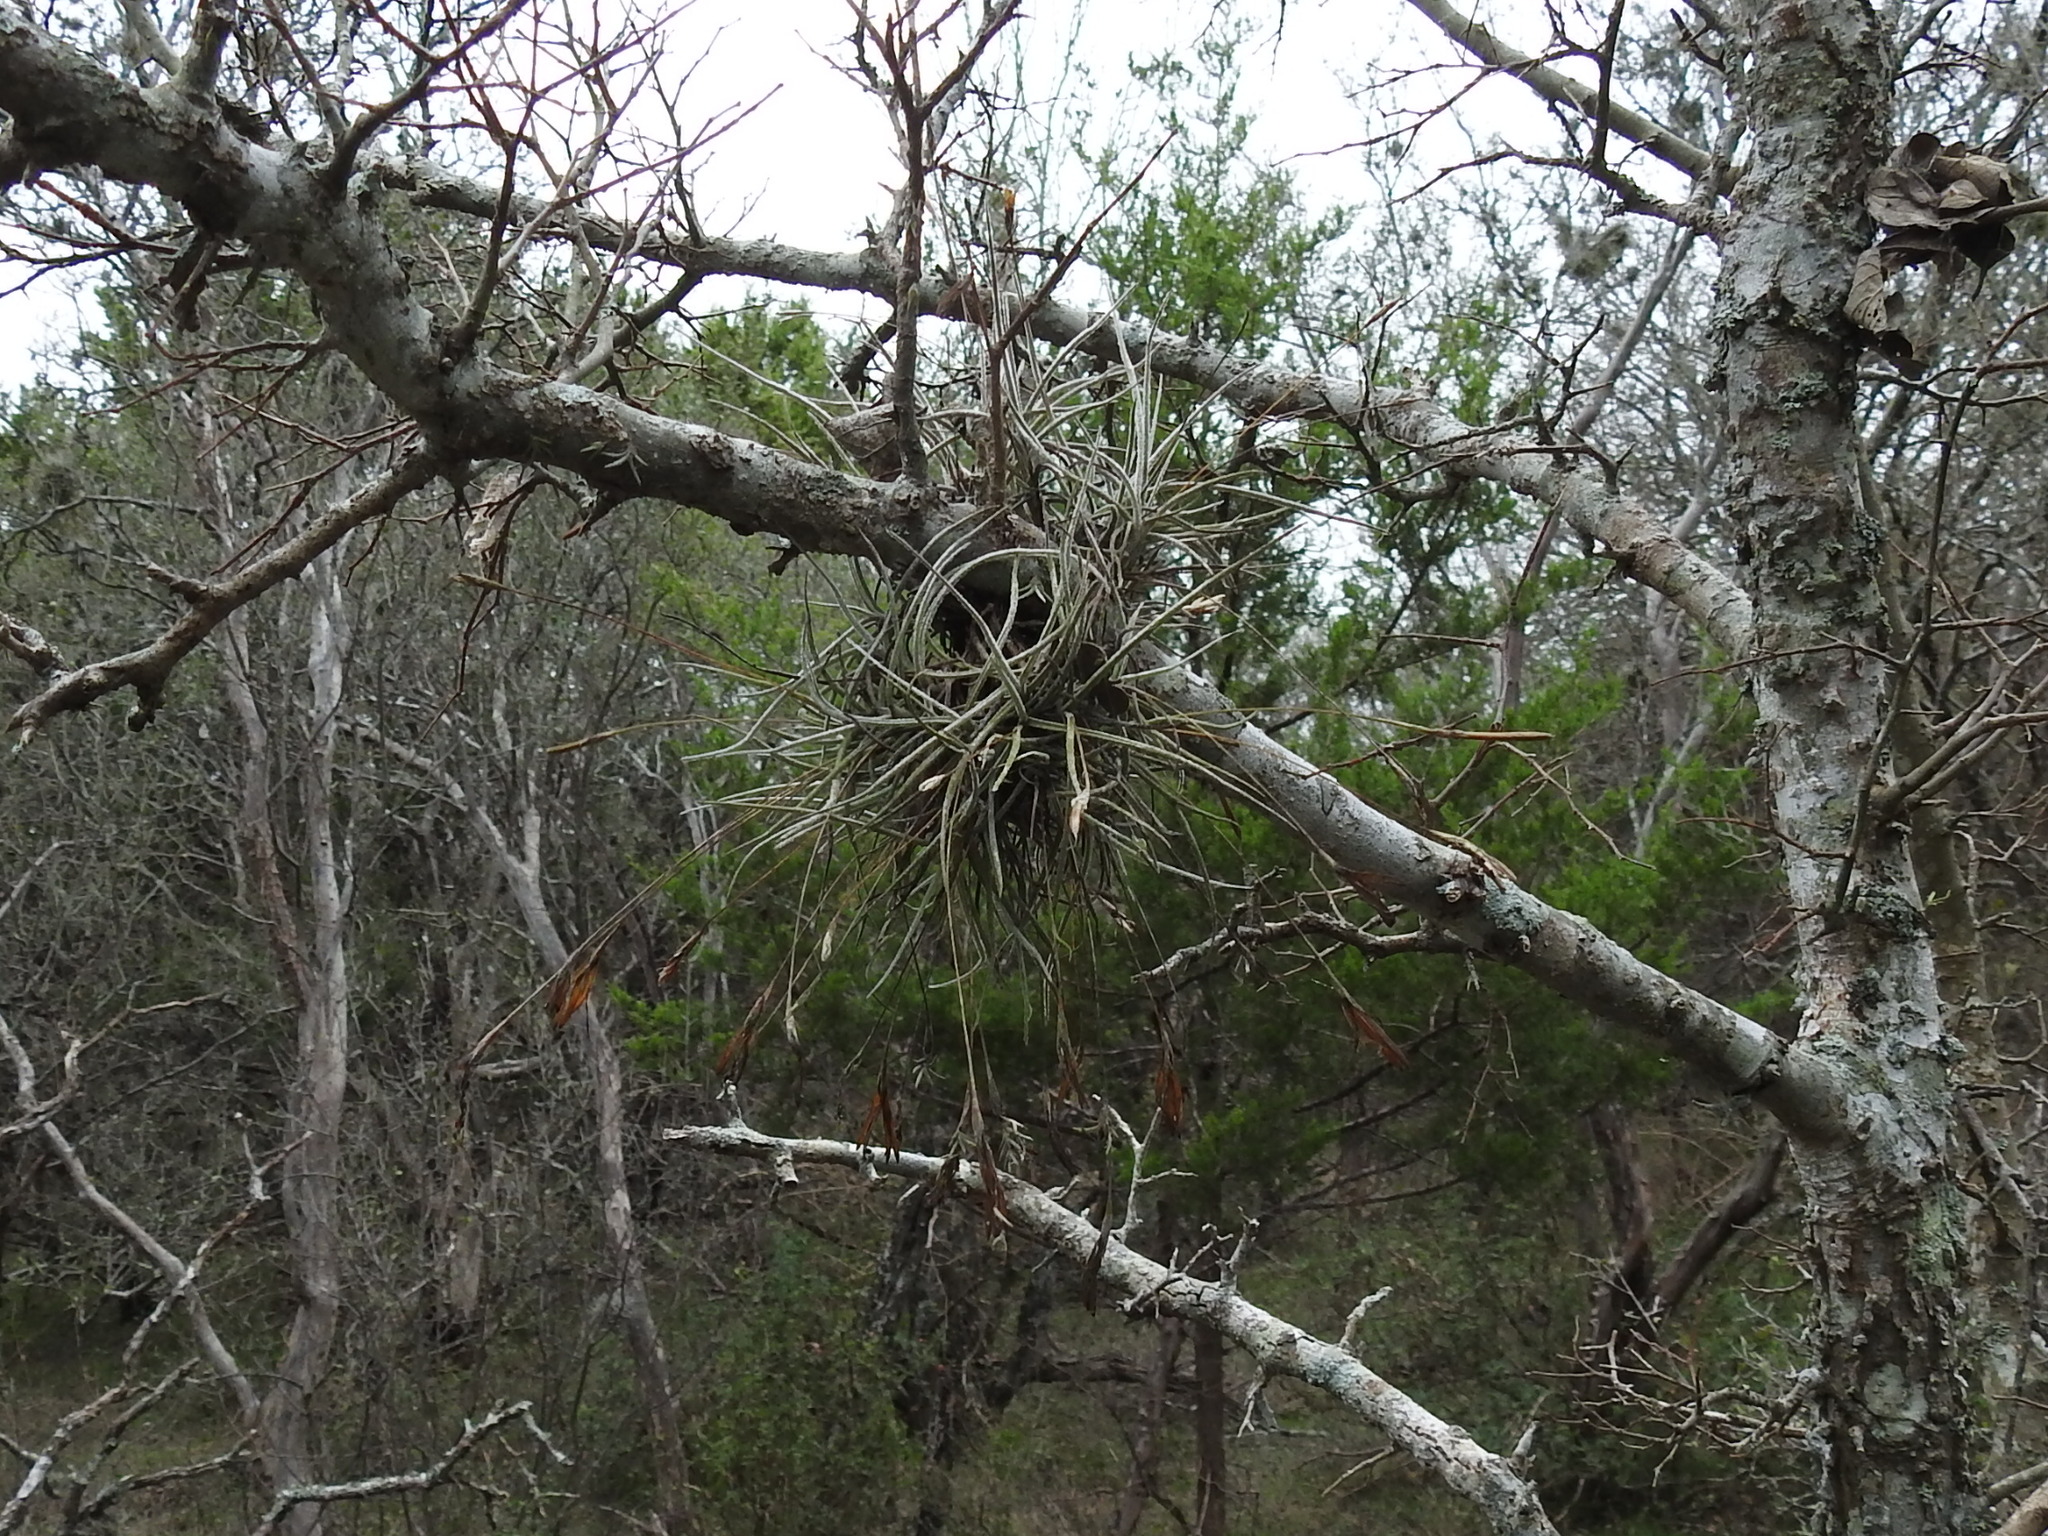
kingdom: Plantae
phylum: Tracheophyta
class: Liliopsida
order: Poales
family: Bromeliaceae
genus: Tillandsia
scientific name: Tillandsia recurvata
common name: Small ballmoss
